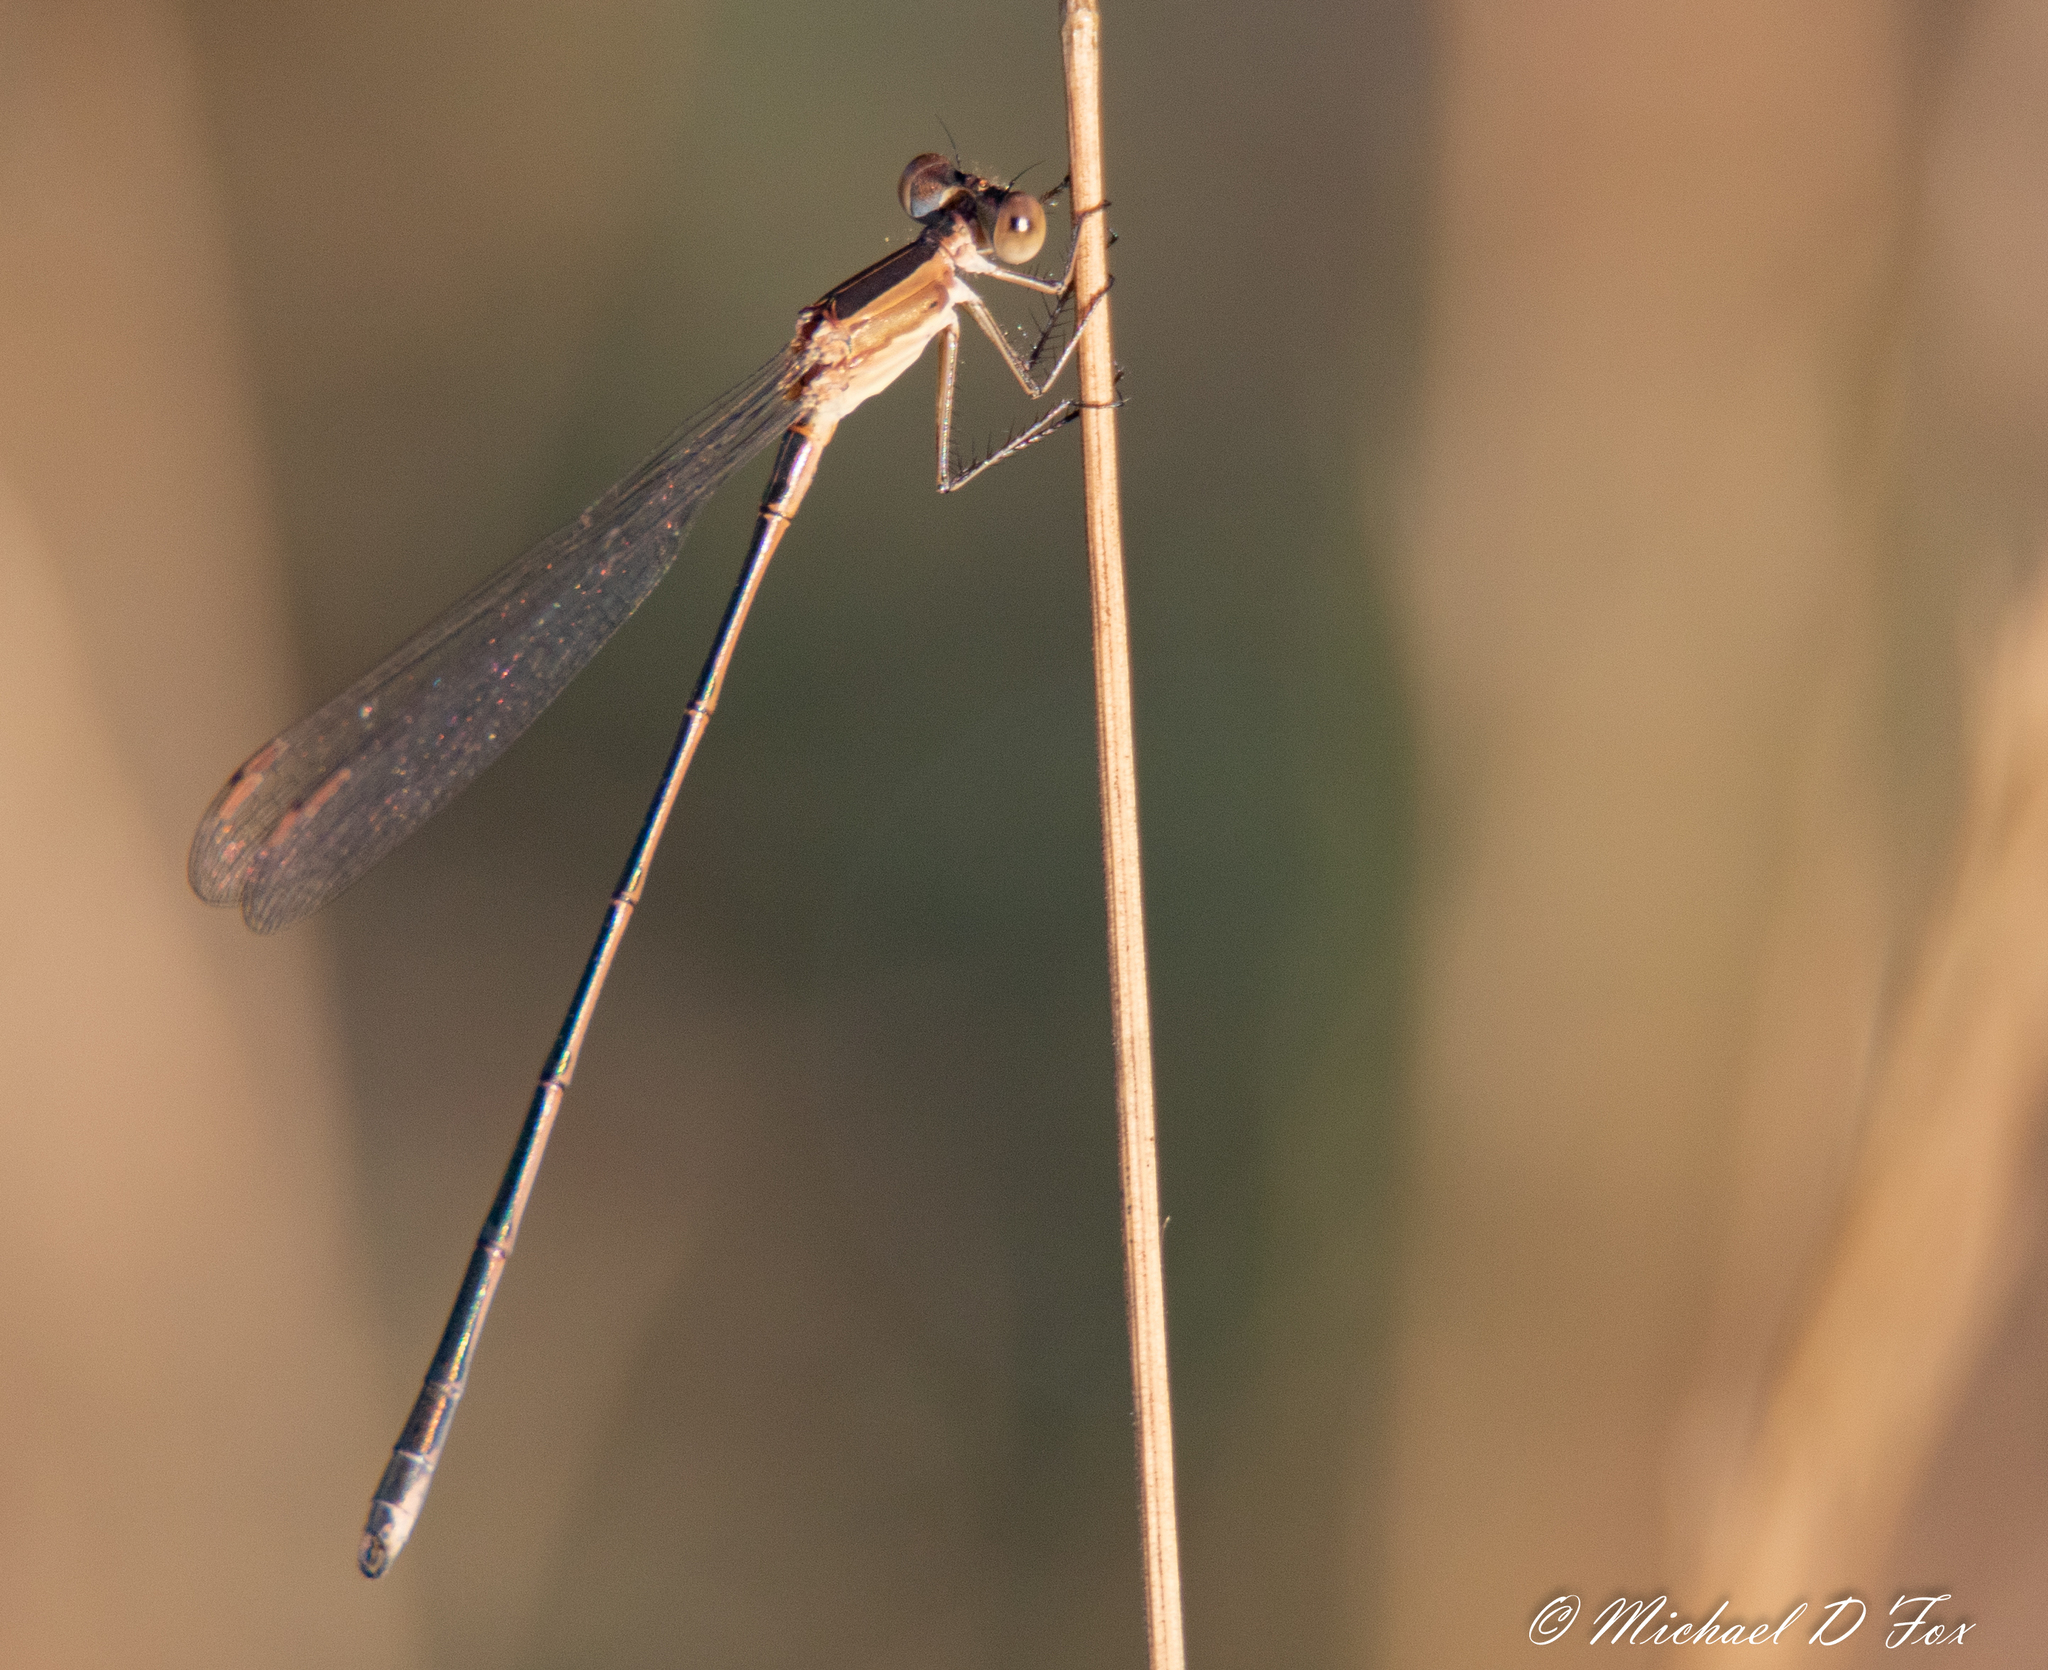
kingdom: Animalia
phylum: Arthropoda
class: Insecta
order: Odonata
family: Lestidae
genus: Lestes
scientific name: Lestes alacer
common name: Plateau spreadwing
